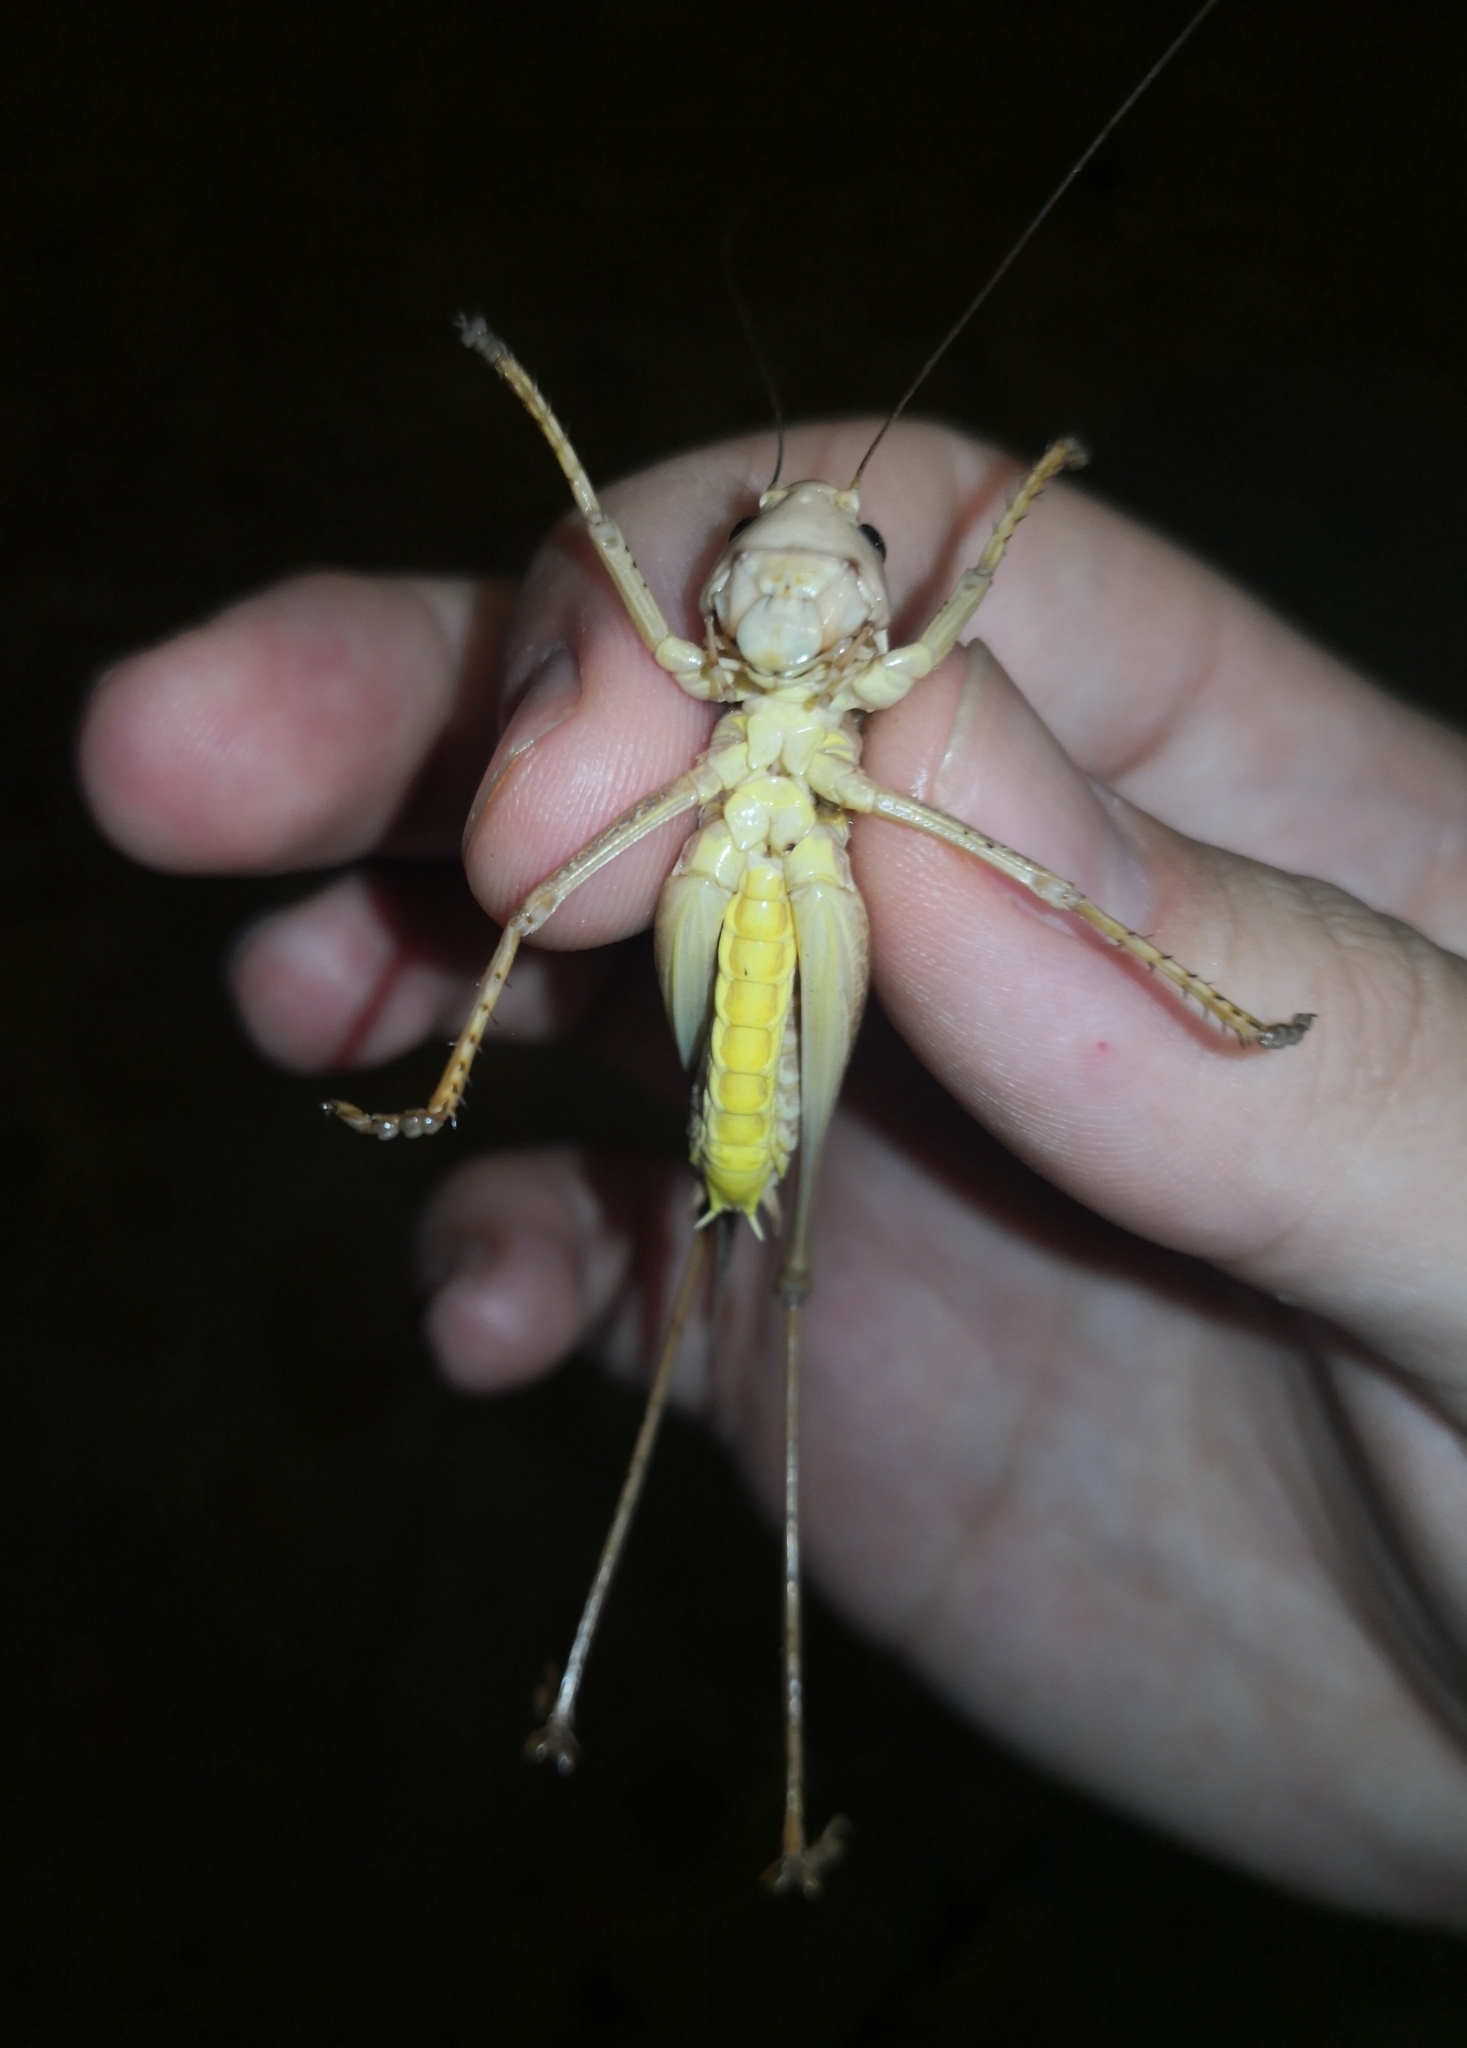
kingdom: Animalia
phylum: Arthropoda
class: Insecta
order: Orthoptera
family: Tettigoniidae
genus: Decticus
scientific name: Decticus albifrons
